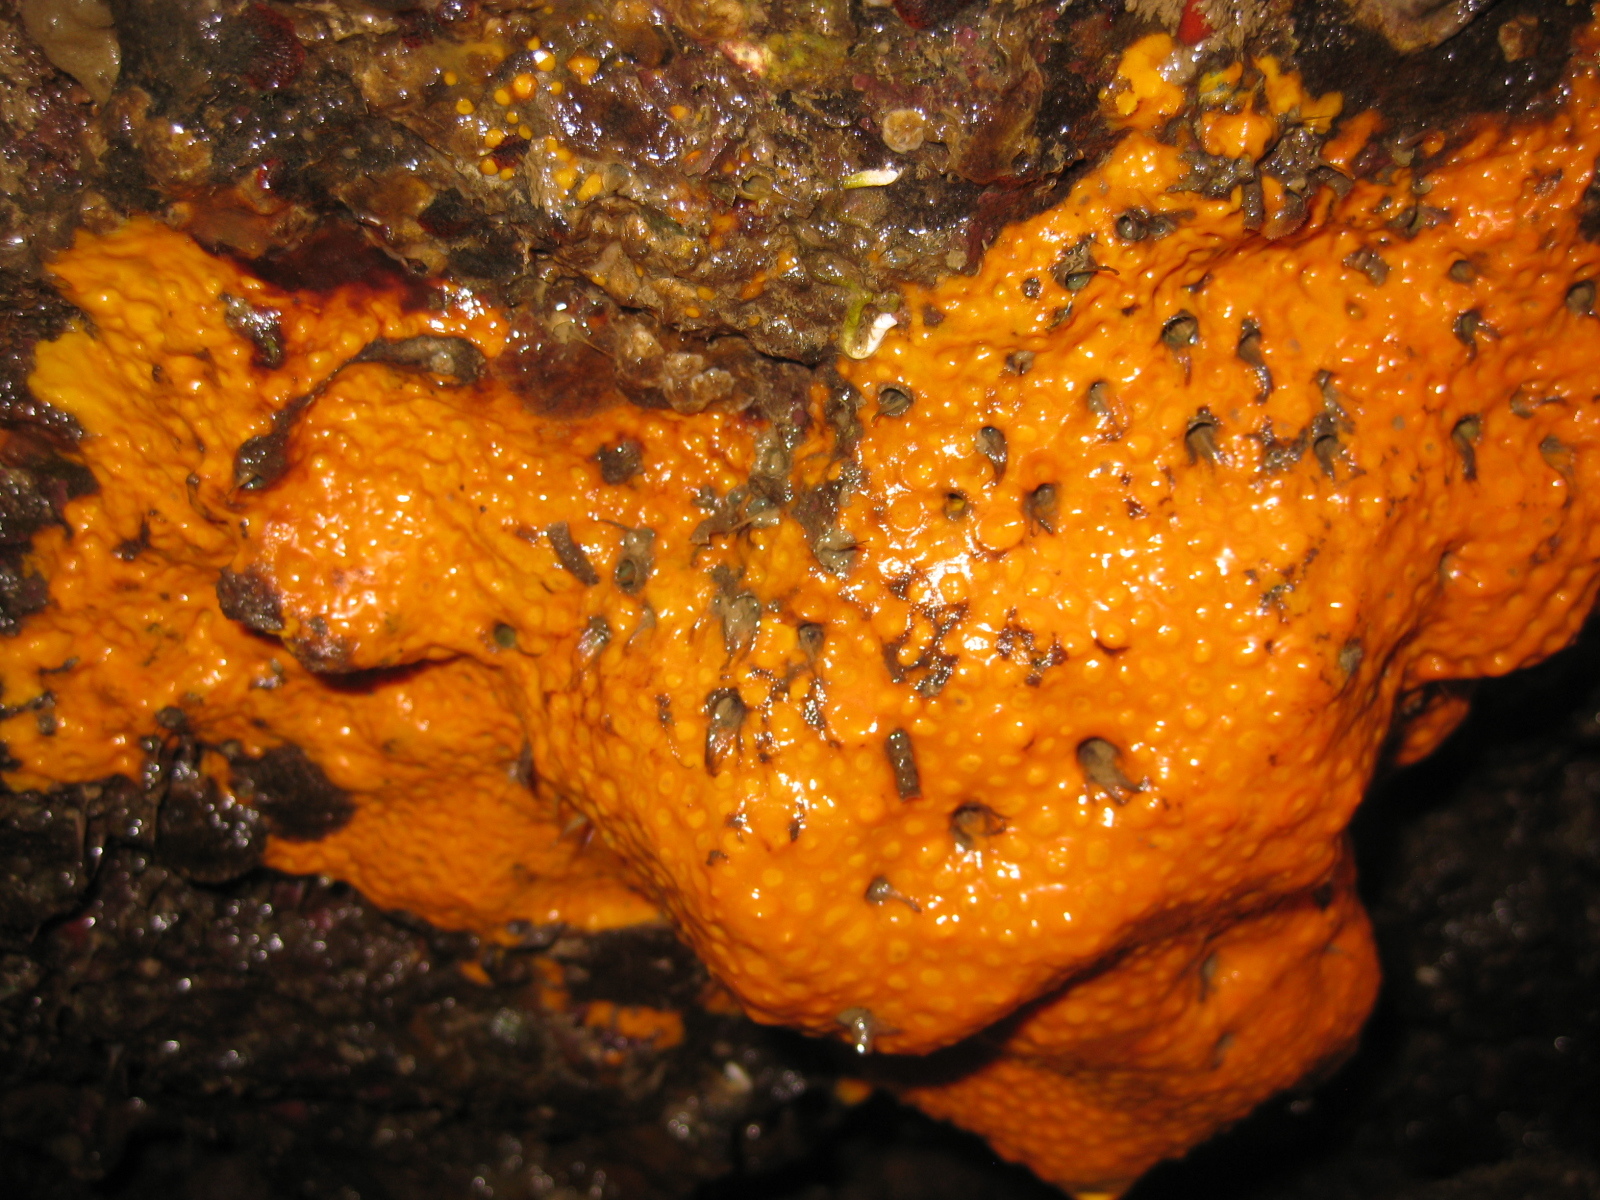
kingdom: Animalia
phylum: Porifera
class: Demospongiae
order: Clionaida
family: Clionaidae
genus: Cliona
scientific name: Cliona celata
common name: Boring sponge
